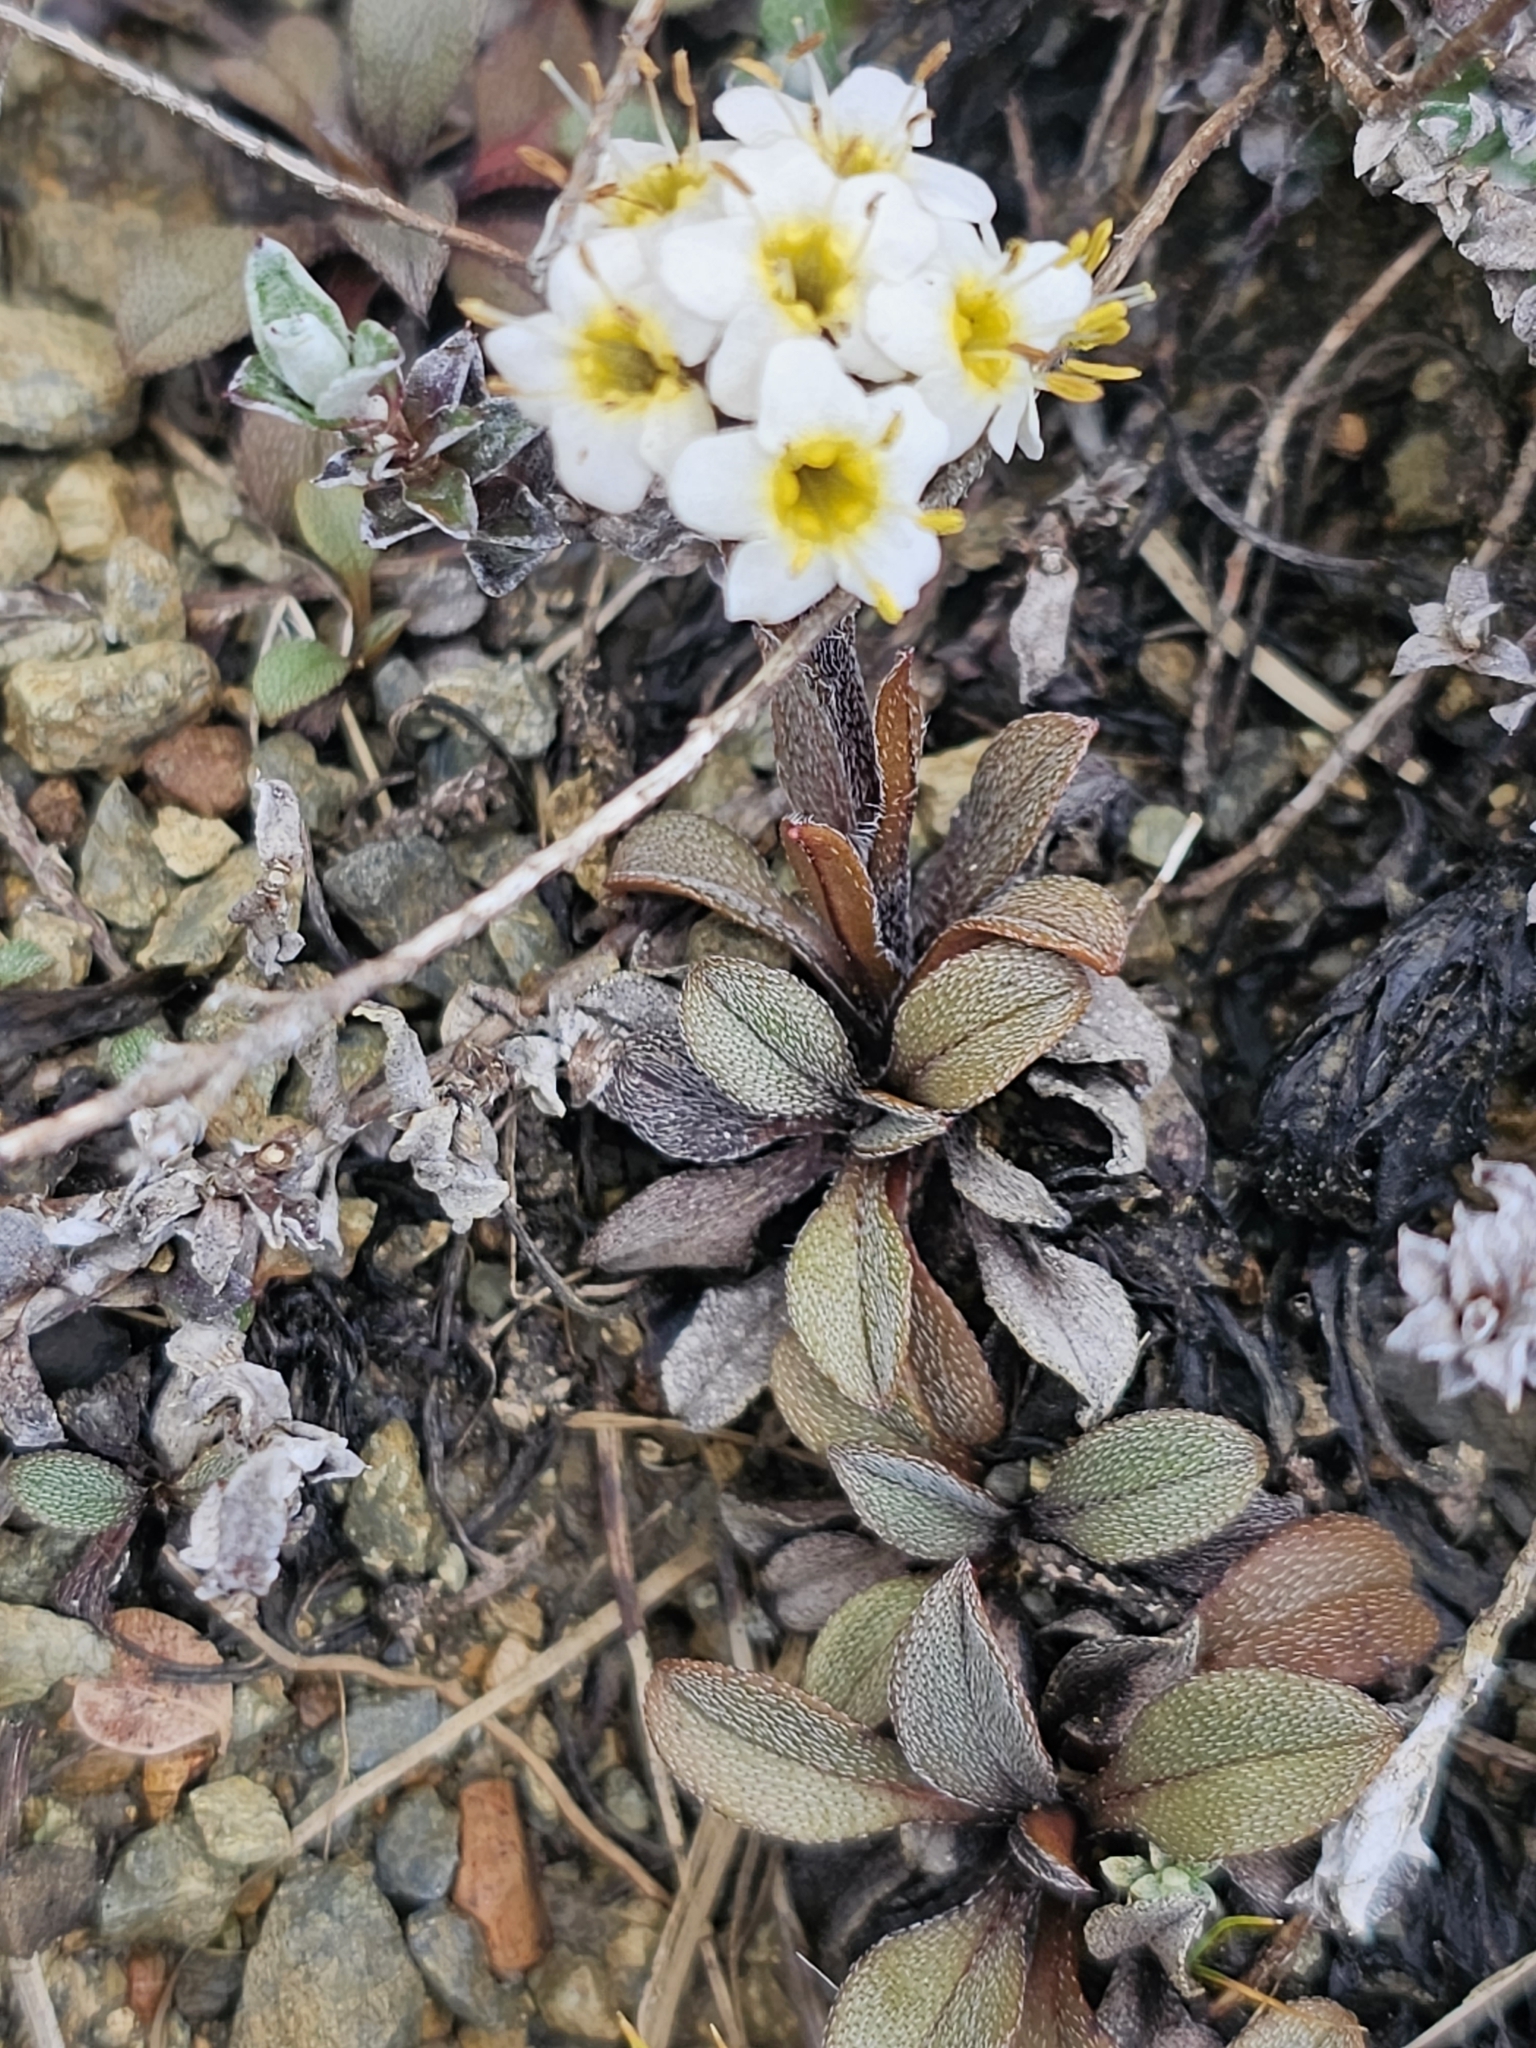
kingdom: Plantae
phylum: Tracheophyta
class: Magnoliopsida
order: Boraginales
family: Boraginaceae
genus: Myosotis
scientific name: Myosotis monroi
